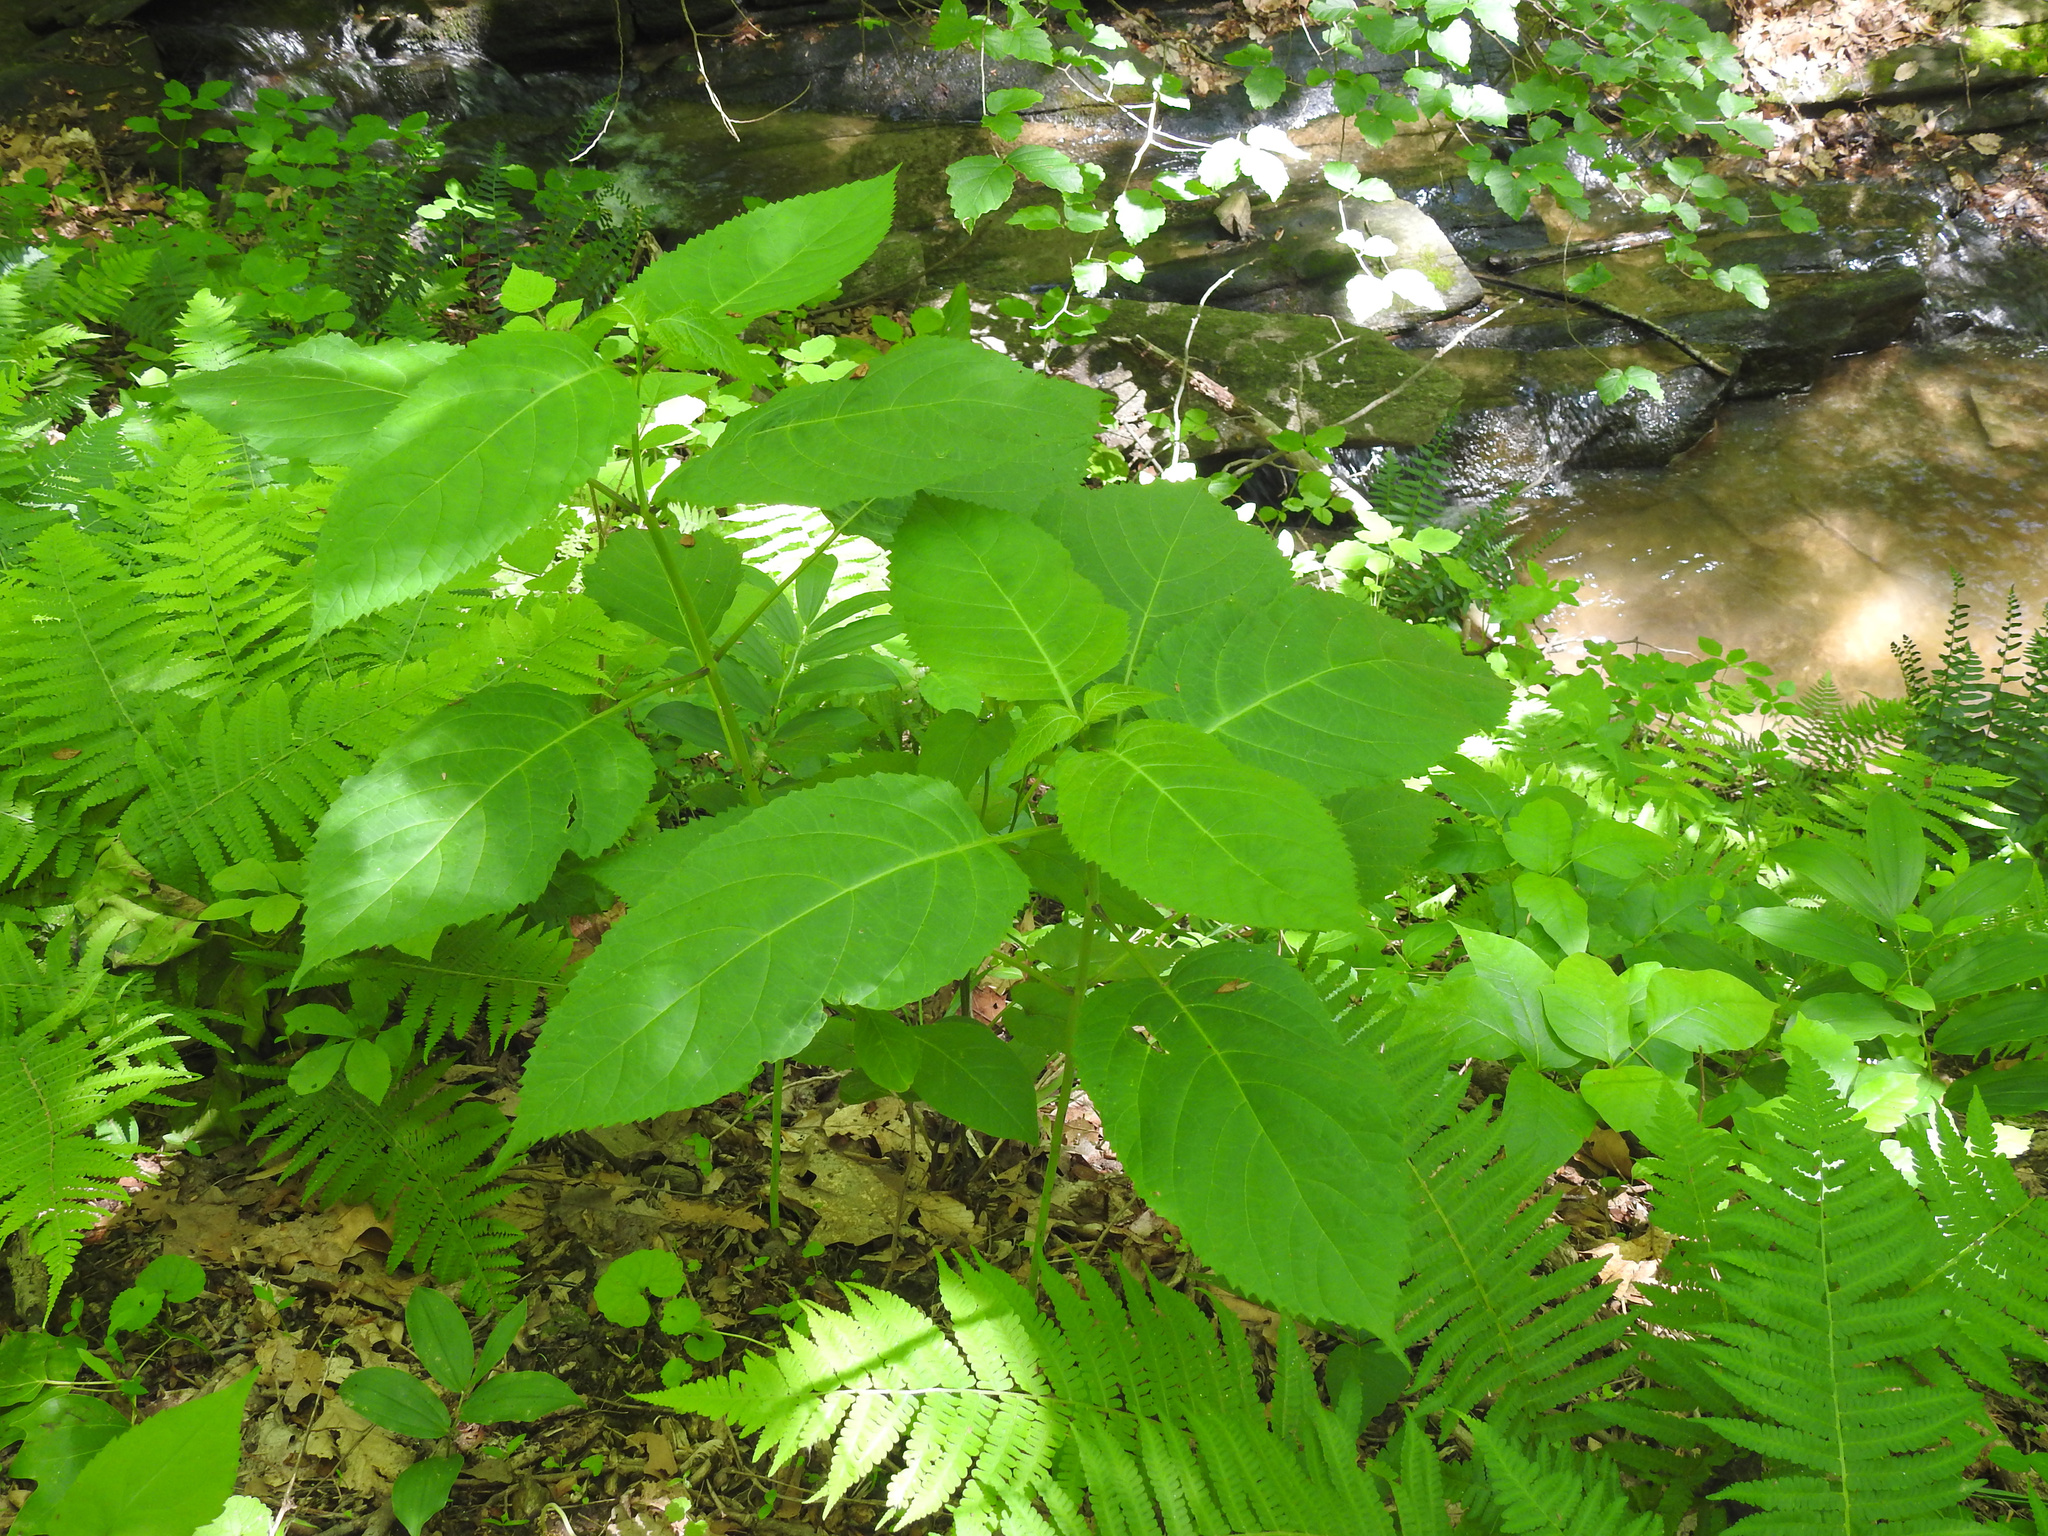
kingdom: Plantae
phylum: Tracheophyta
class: Magnoliopsida
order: Lamiales
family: Lamiaceae
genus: Collinsonia
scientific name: Collinsonia canadensis
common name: Northern horsebalm
